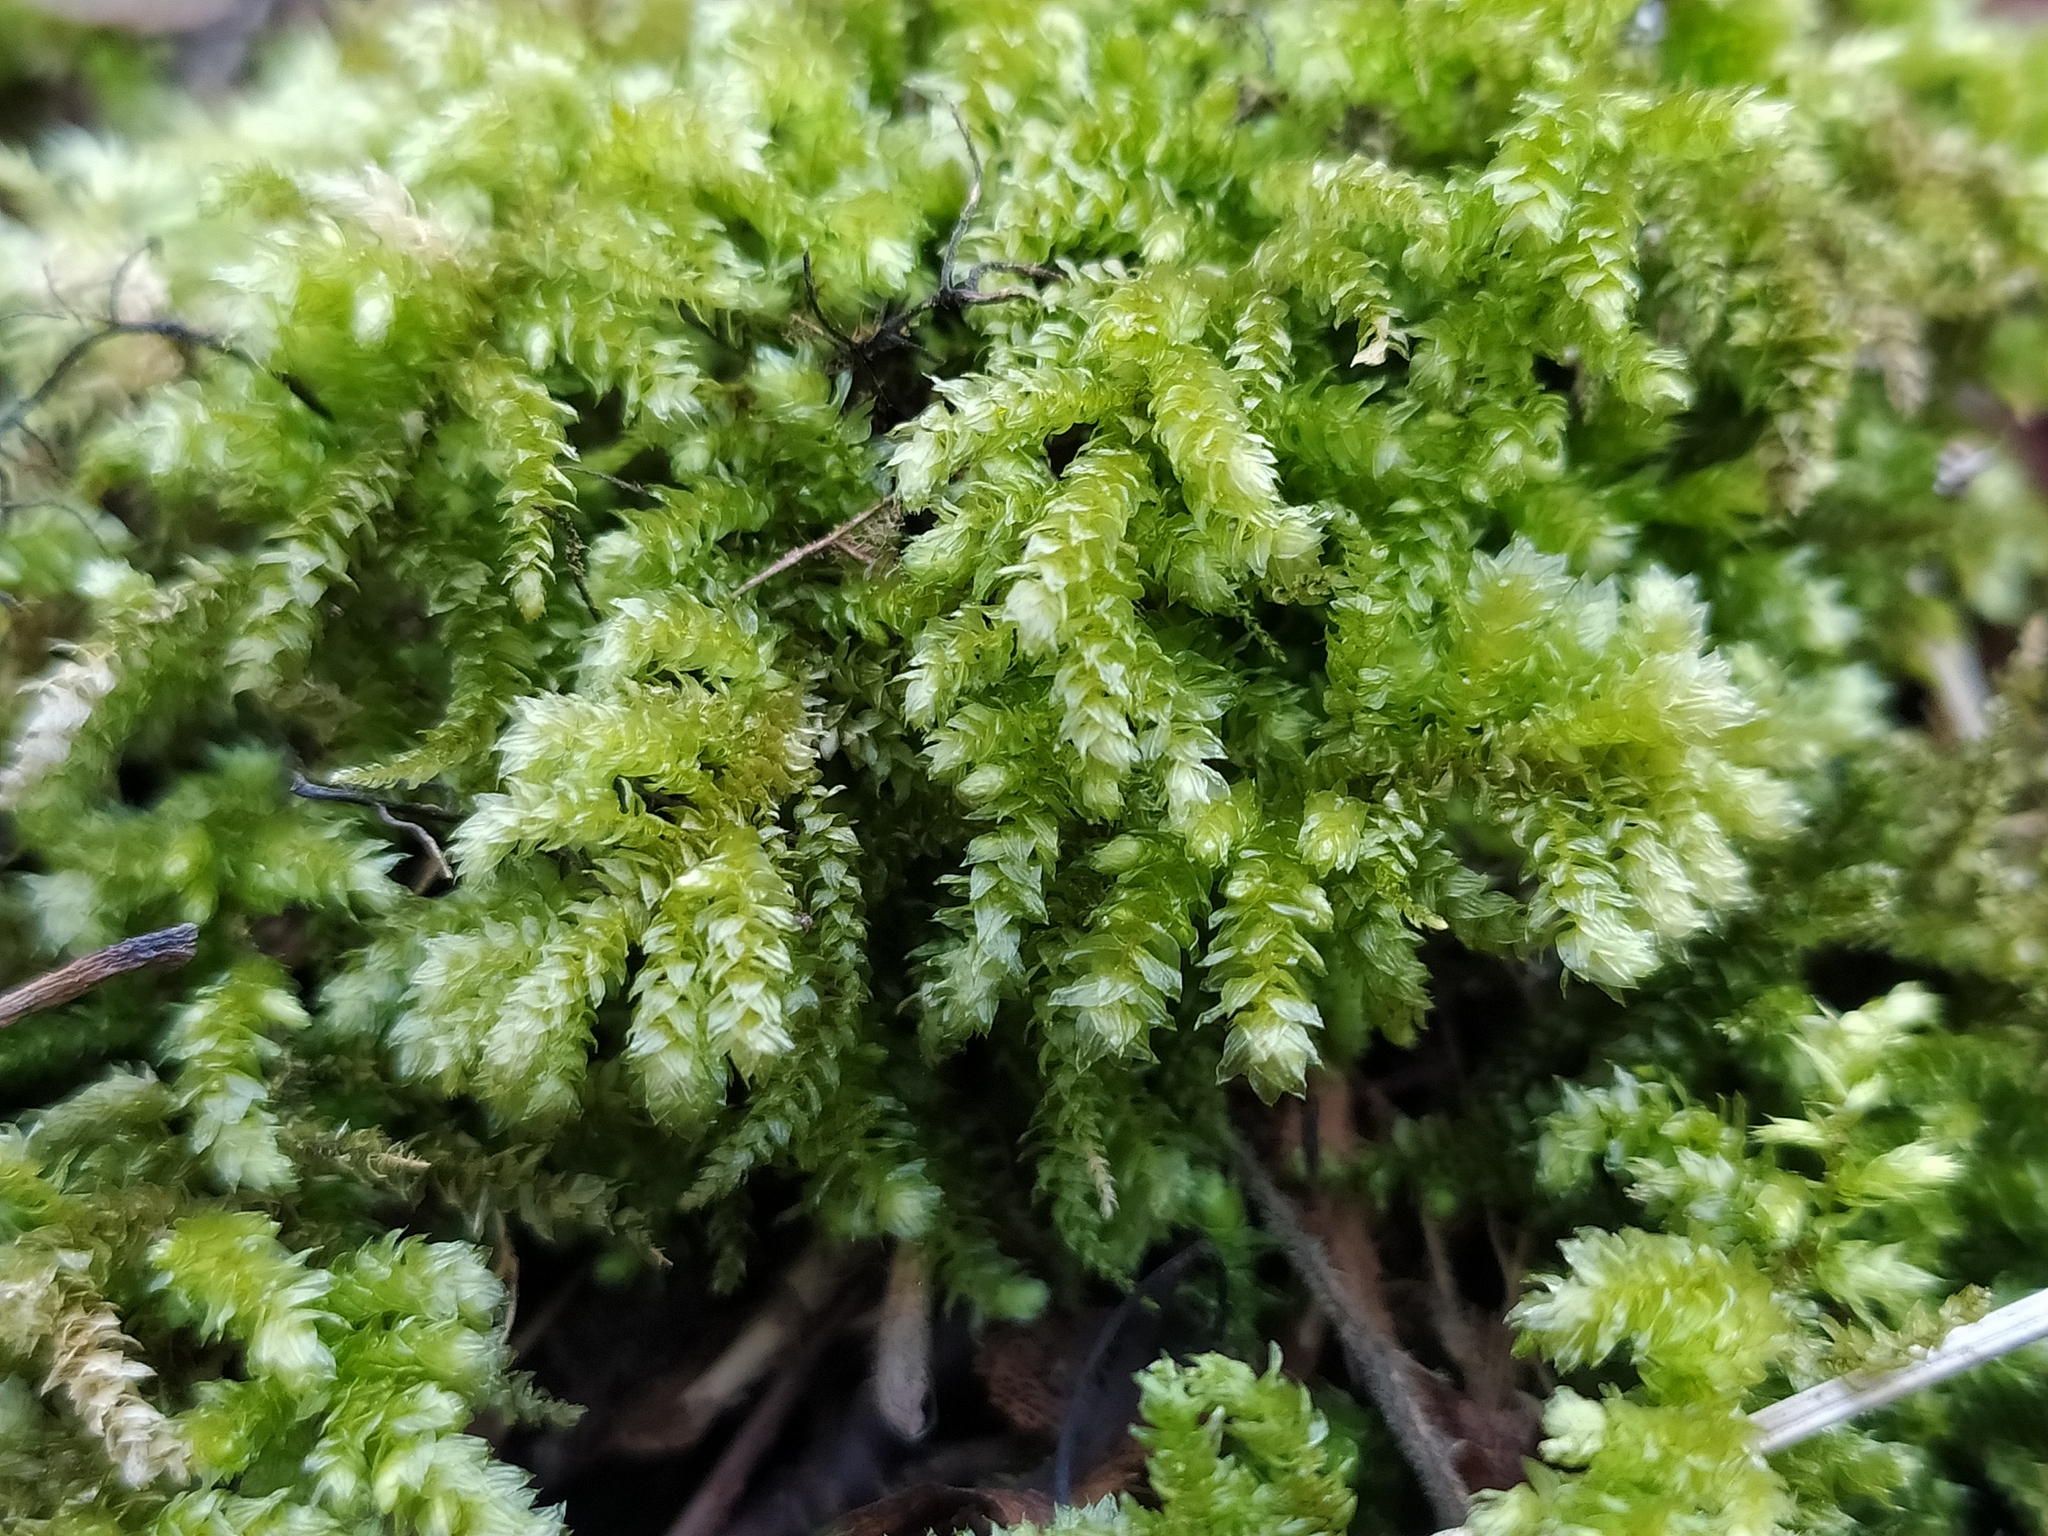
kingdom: Plantae
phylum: Bryophyta
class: Bryopsida
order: Hypnales
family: Brachytheciaceae
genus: Eurhynchium
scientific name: Eurhynchium angustirete
